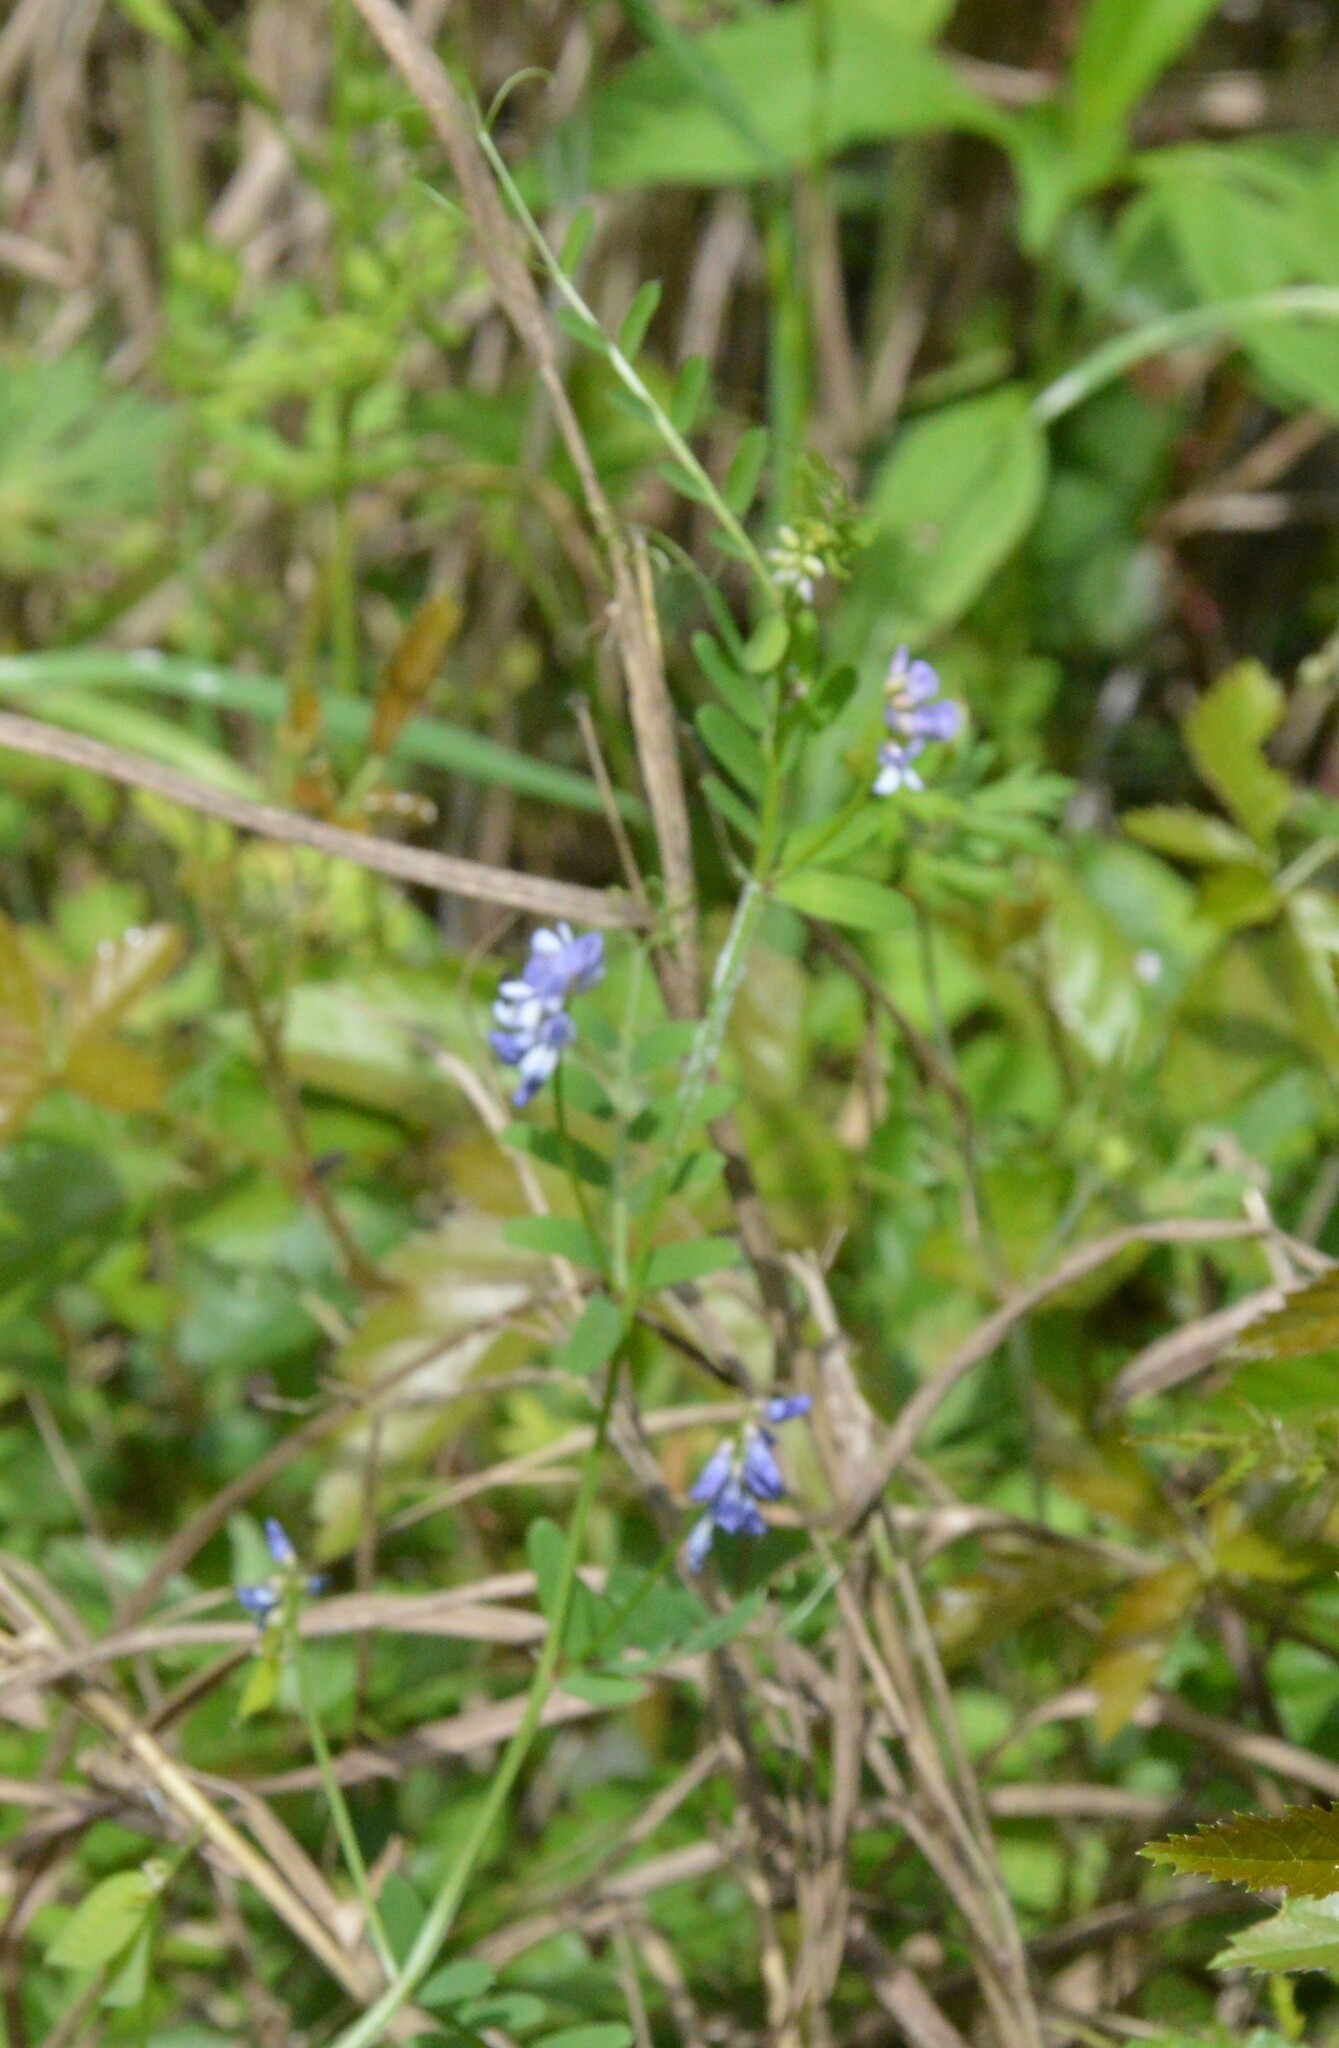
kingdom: Plantae
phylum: Tracheophyta
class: Magnoliopsida
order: Fabales
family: Fabaceae
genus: Vicia
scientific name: Vicia ludoviciana
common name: Louisiana vetch
